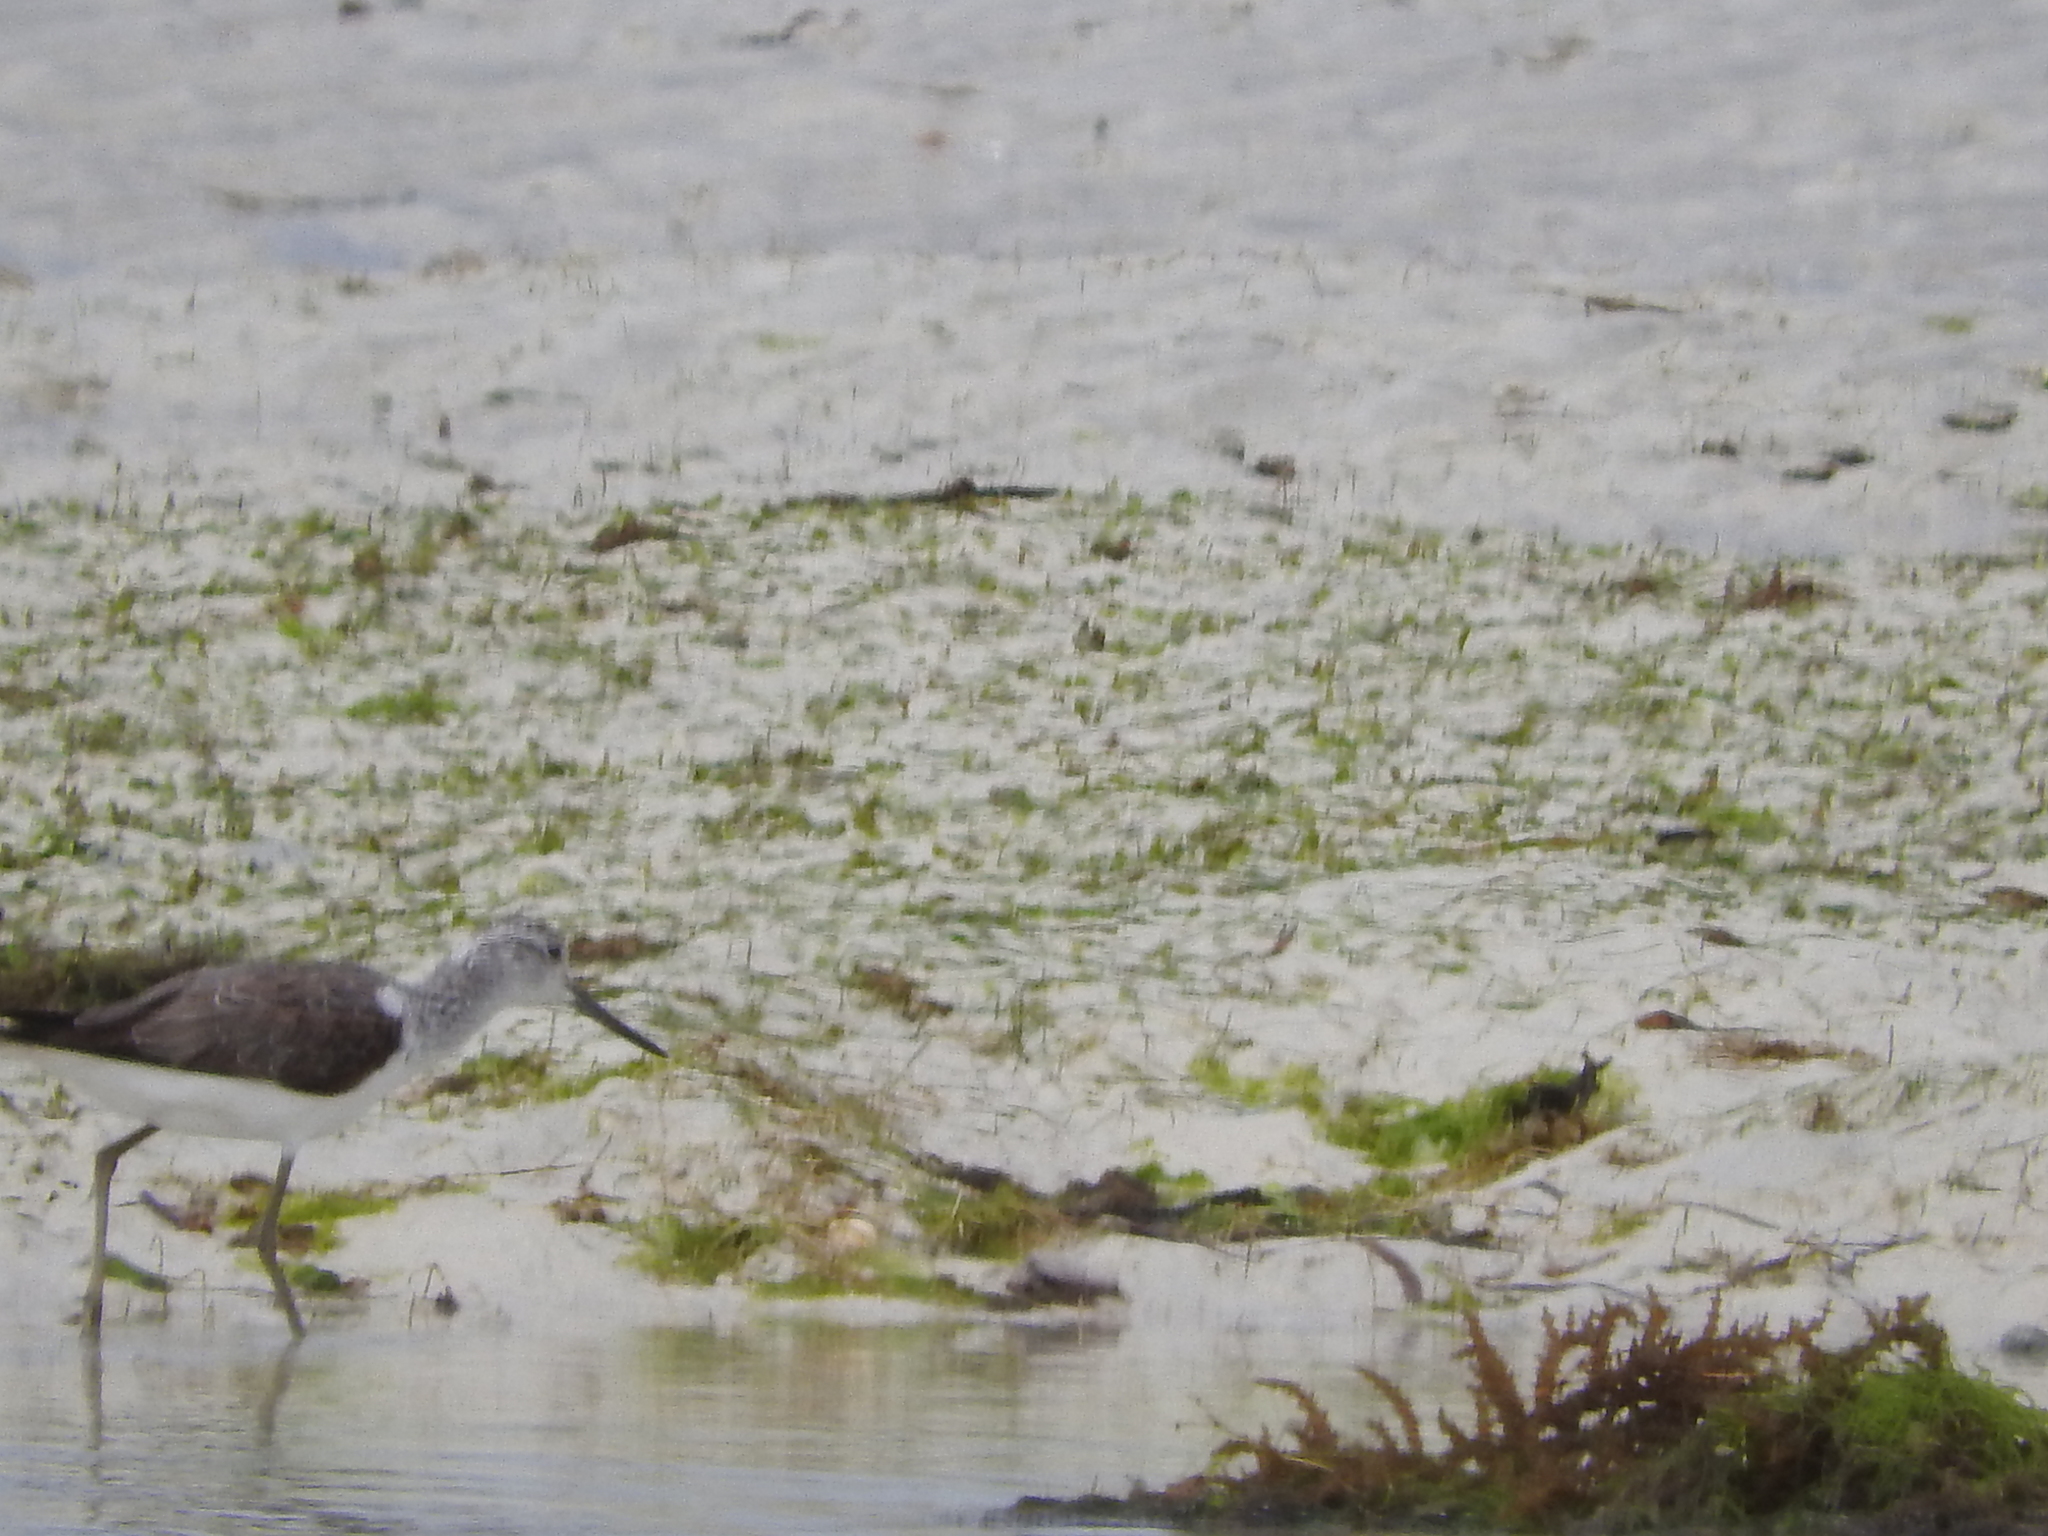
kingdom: Animalia
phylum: Chordata
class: Aves
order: Charadriiformes
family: Scolopacidae
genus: Tringa
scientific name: Tringa nebularia
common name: Common greenshank
